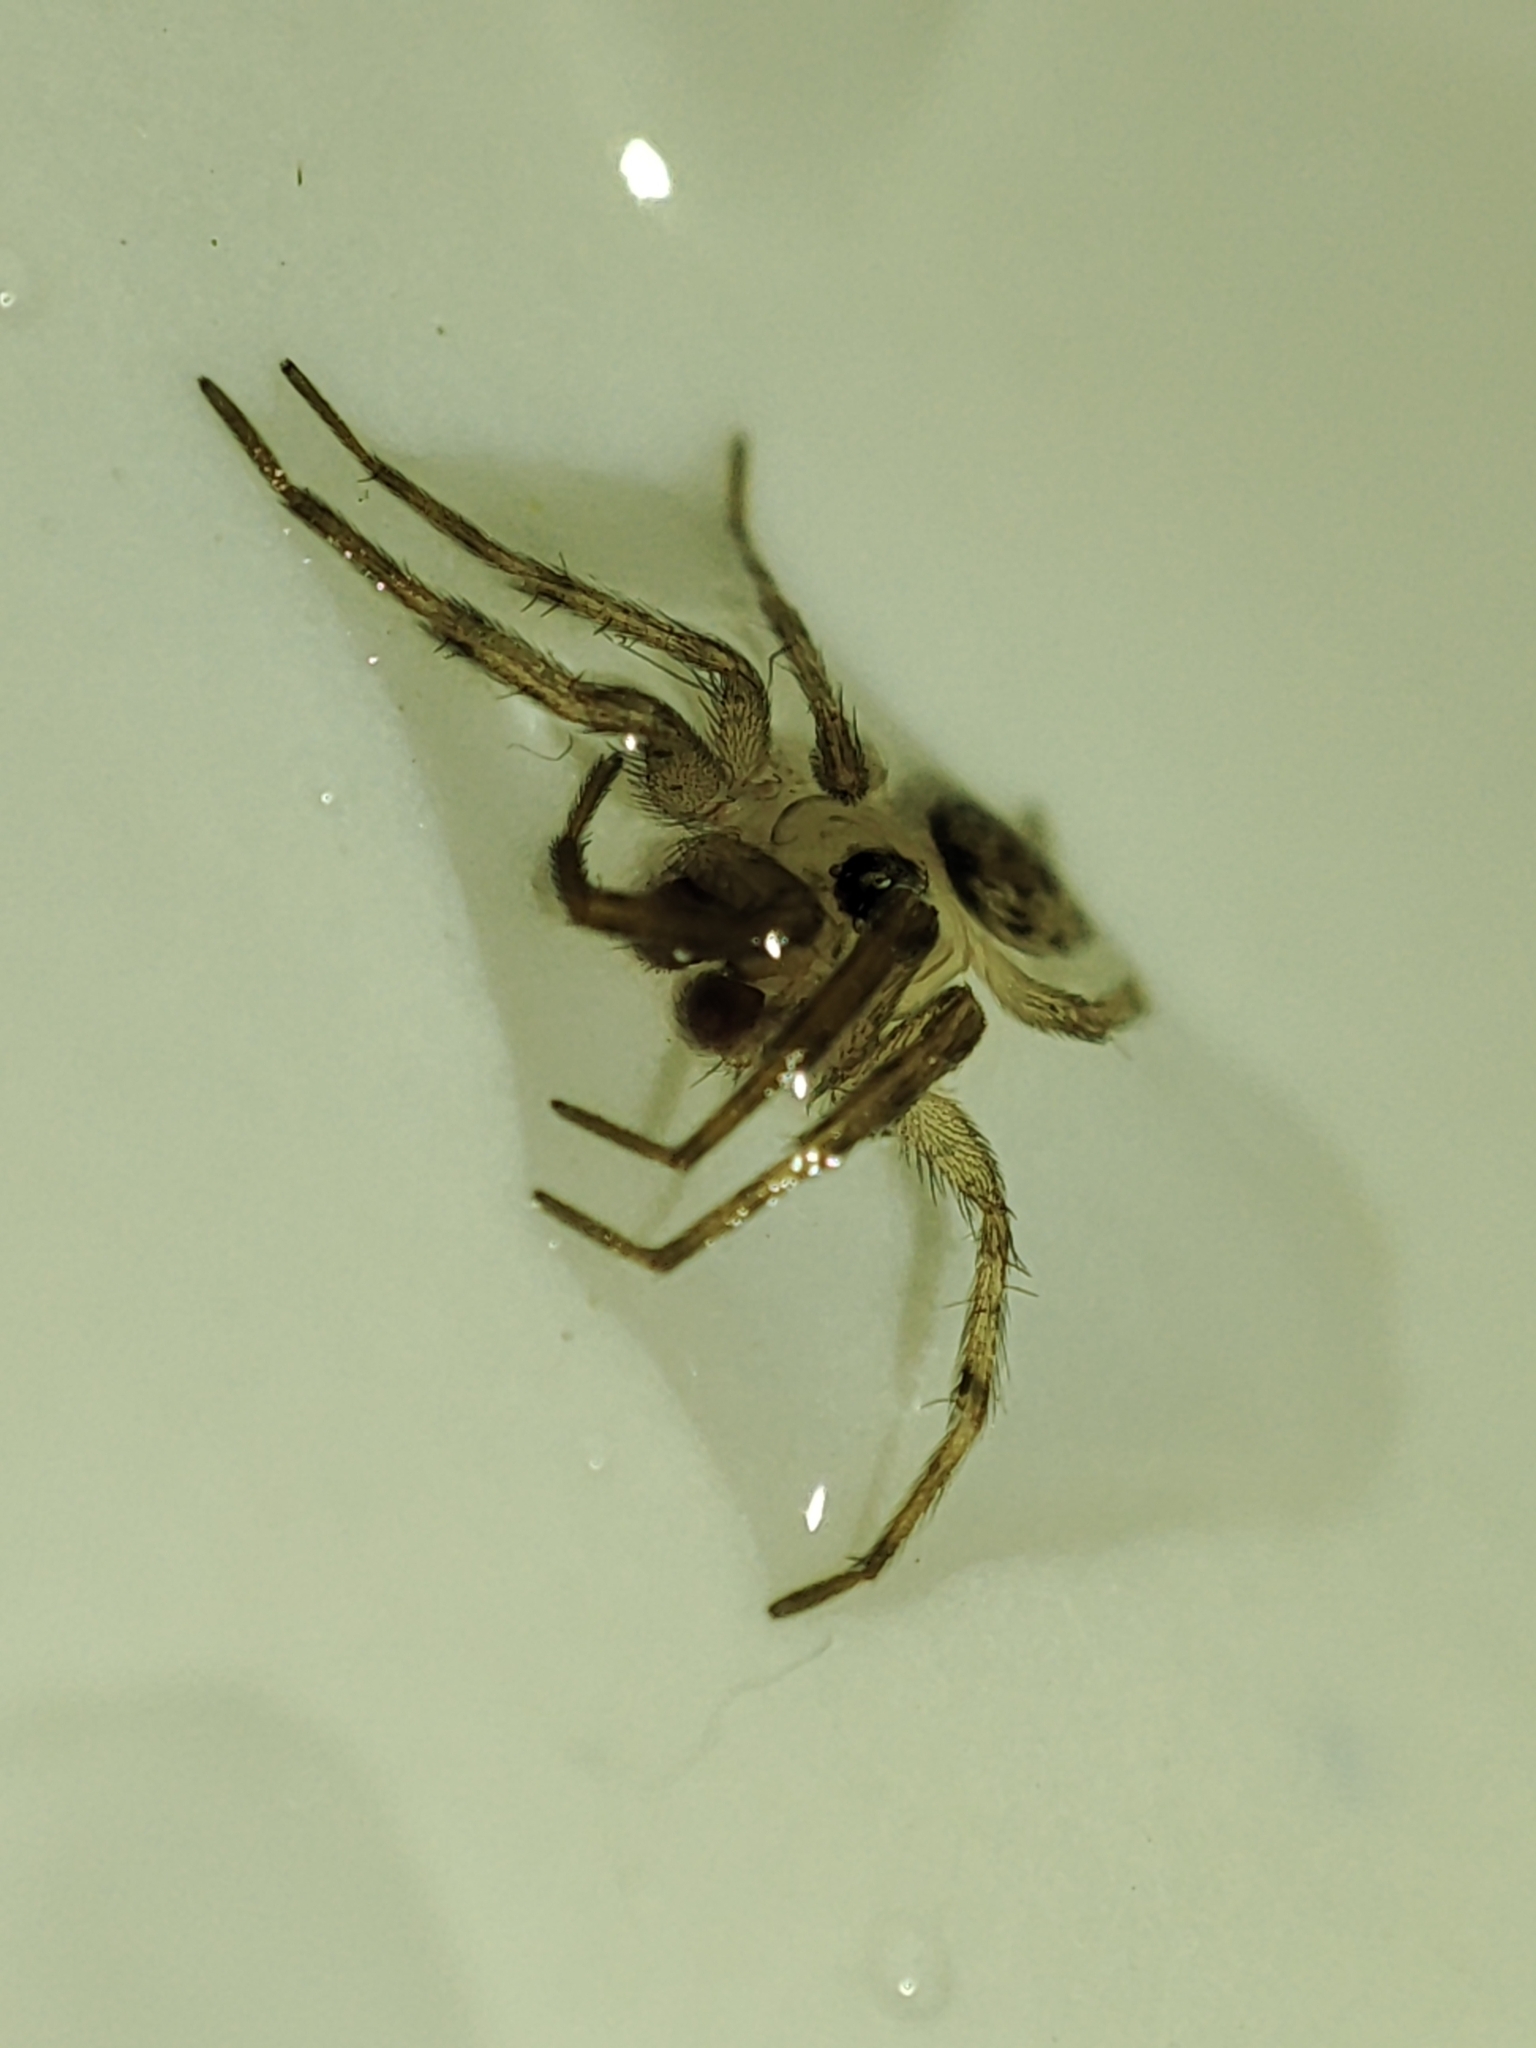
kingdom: Animalia
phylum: Arthropoda
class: Arachnida
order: Araneae
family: Oecobiidae
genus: Oecobius
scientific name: Oecobius navus
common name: Flatmesh weaver
